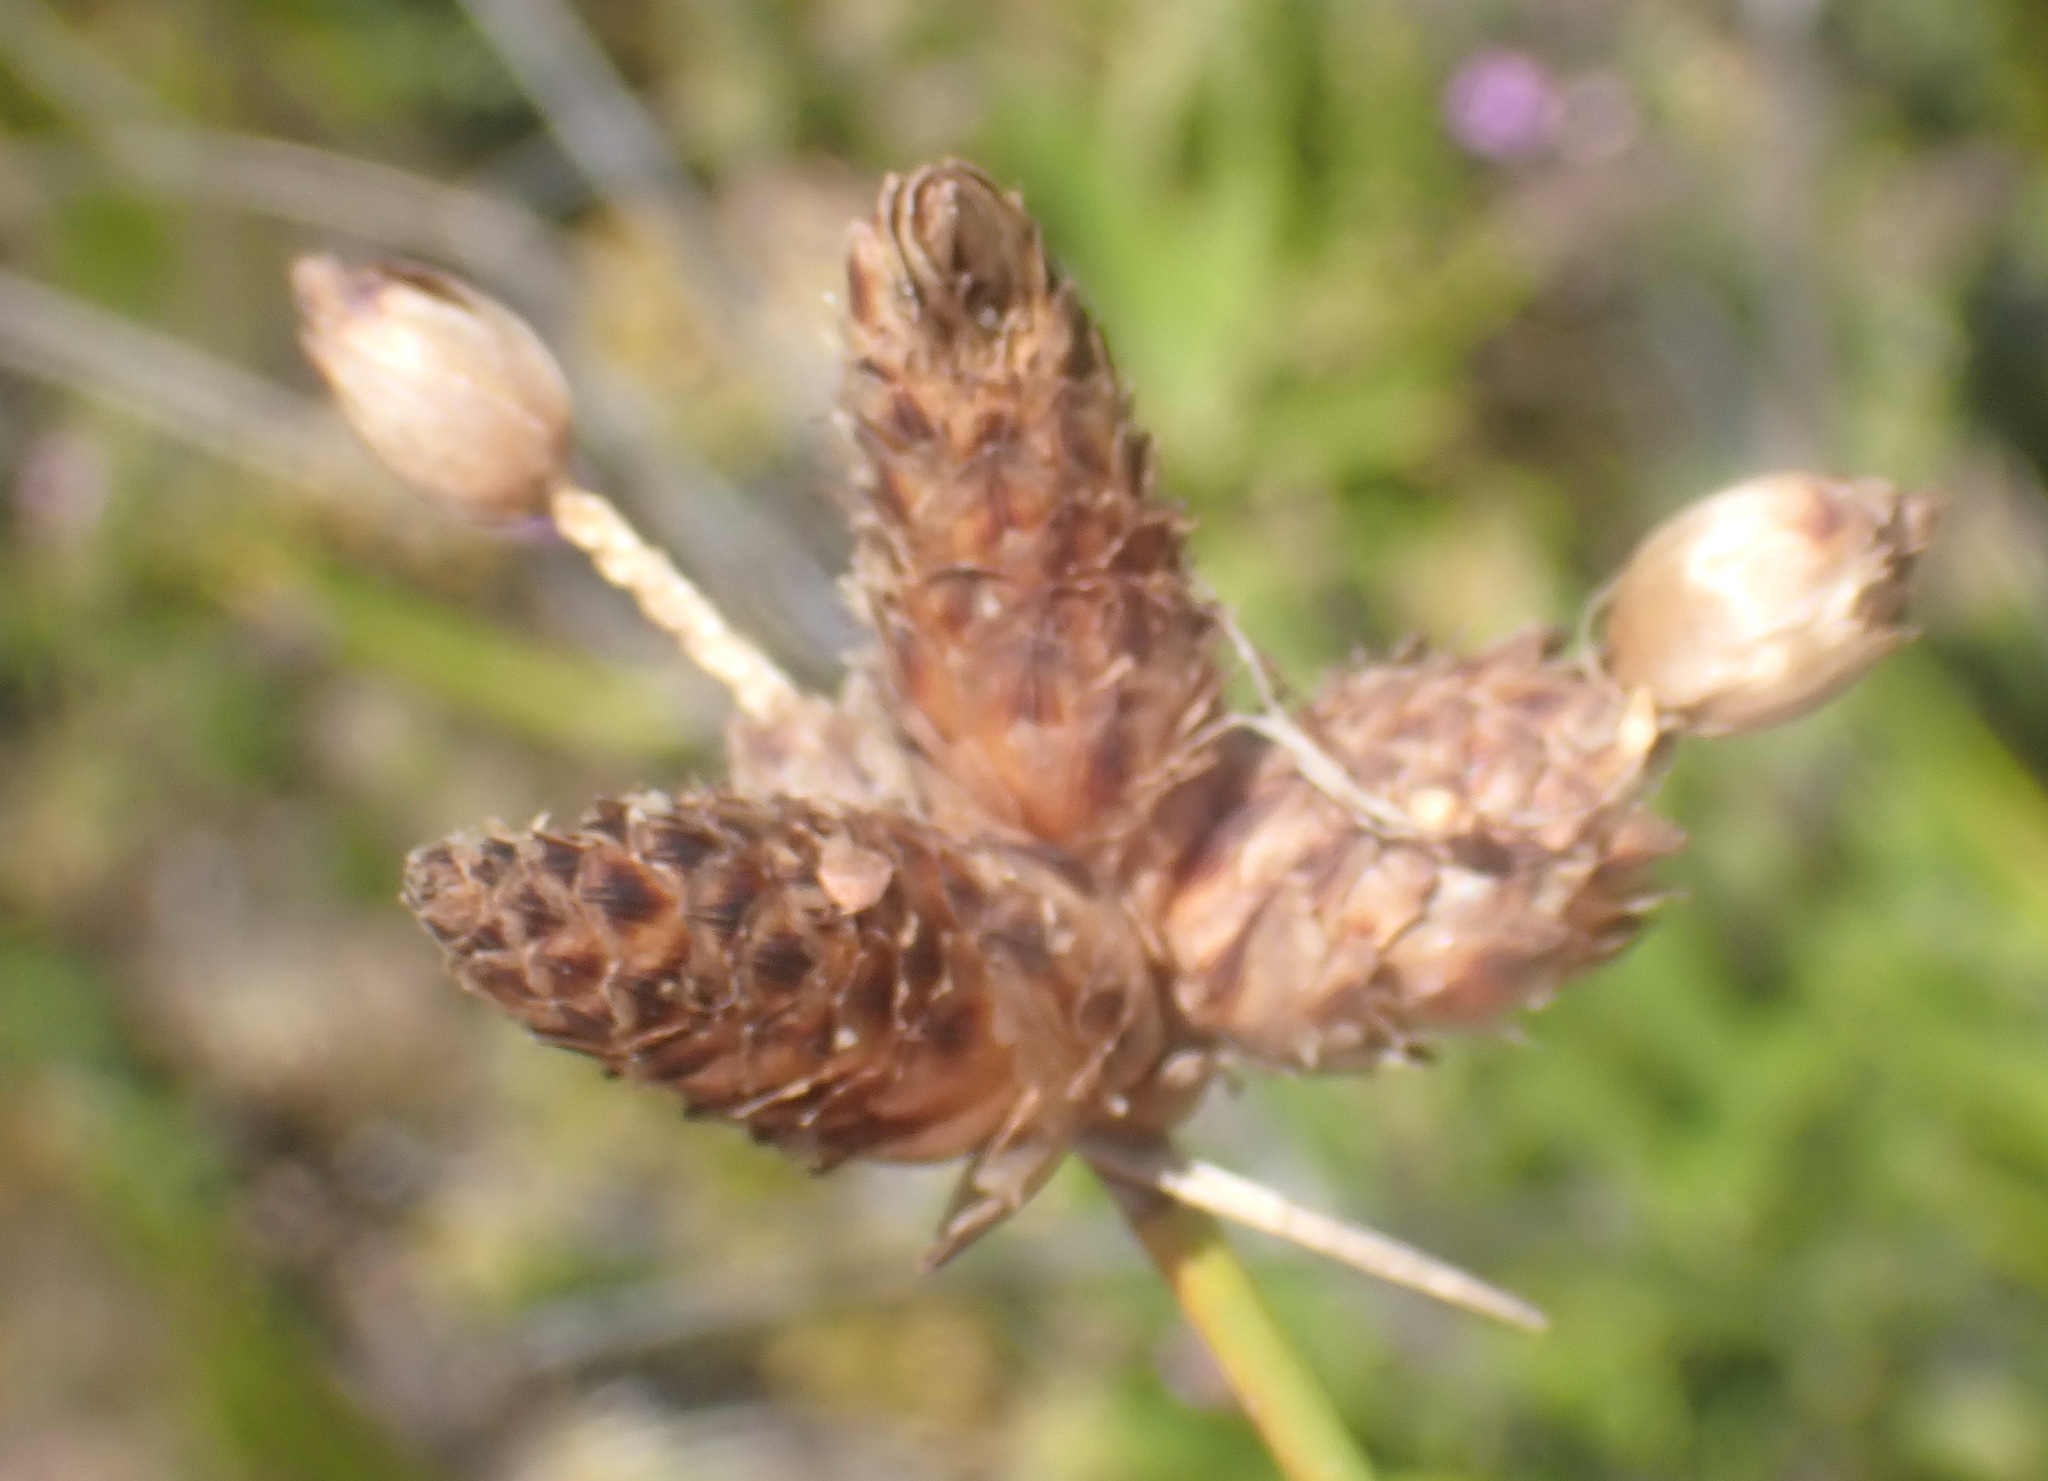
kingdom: Plantae
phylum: Tracheophyta
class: Liliopsida
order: Poales
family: Cyperaceae
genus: Hellmuthia
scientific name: Hellmuthia membranacea
